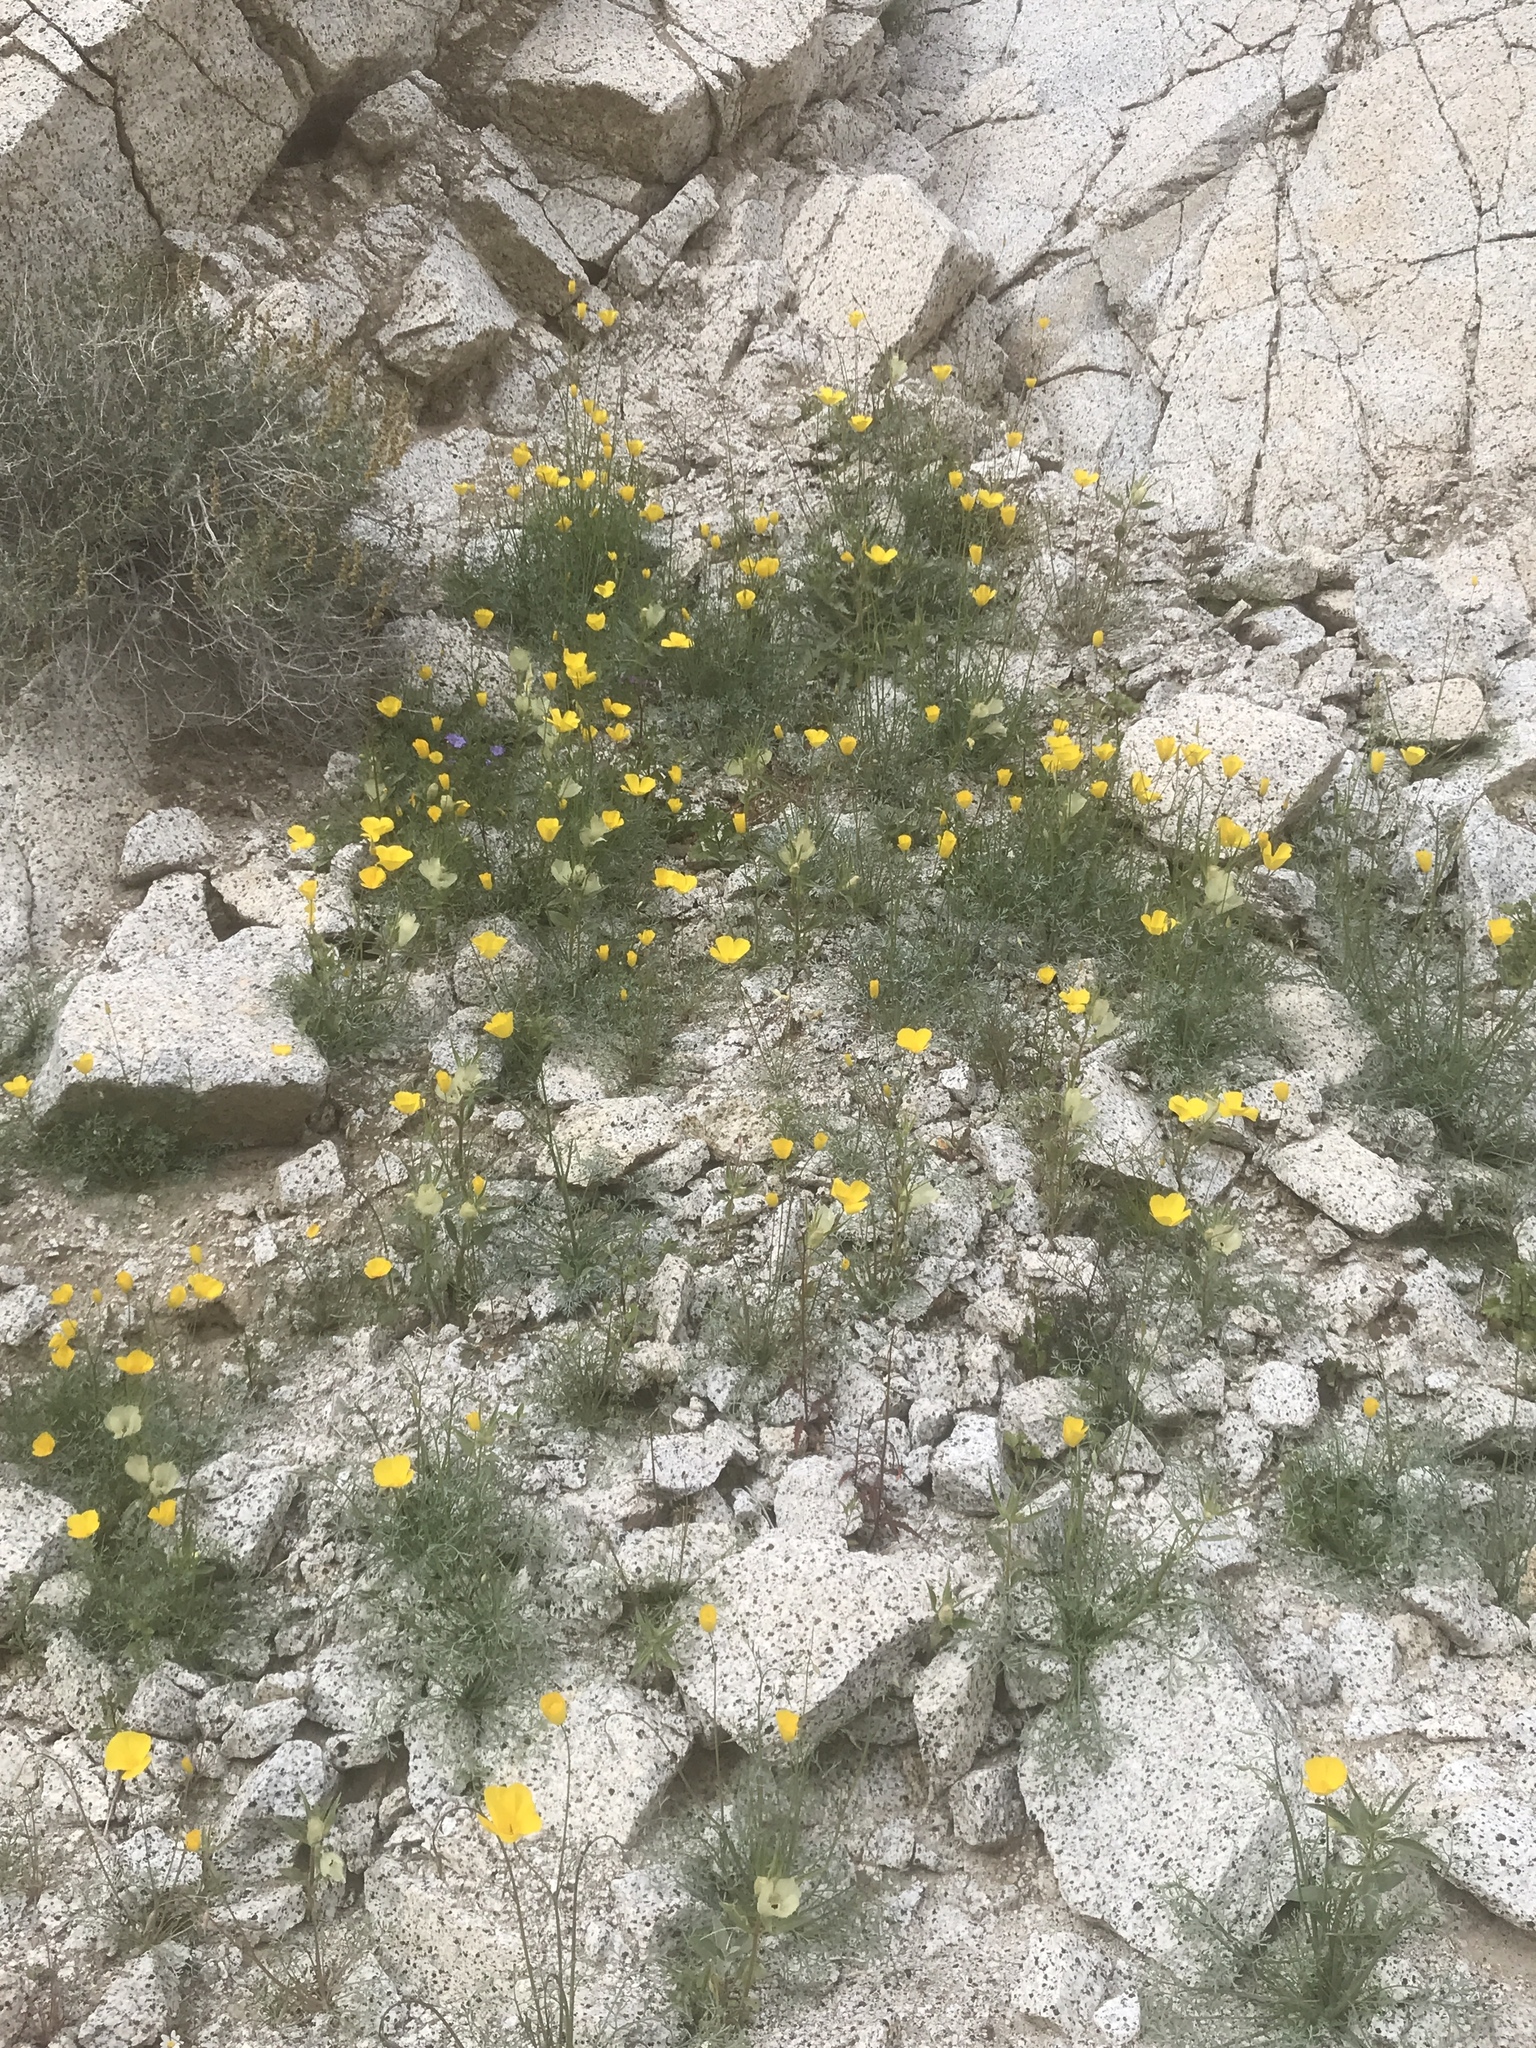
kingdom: Plantae
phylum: Tracheophyta
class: Magnoliopsida
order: Ranunculales
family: Papaveraceae
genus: Eschscholzia
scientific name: Eschscholzia parishii
